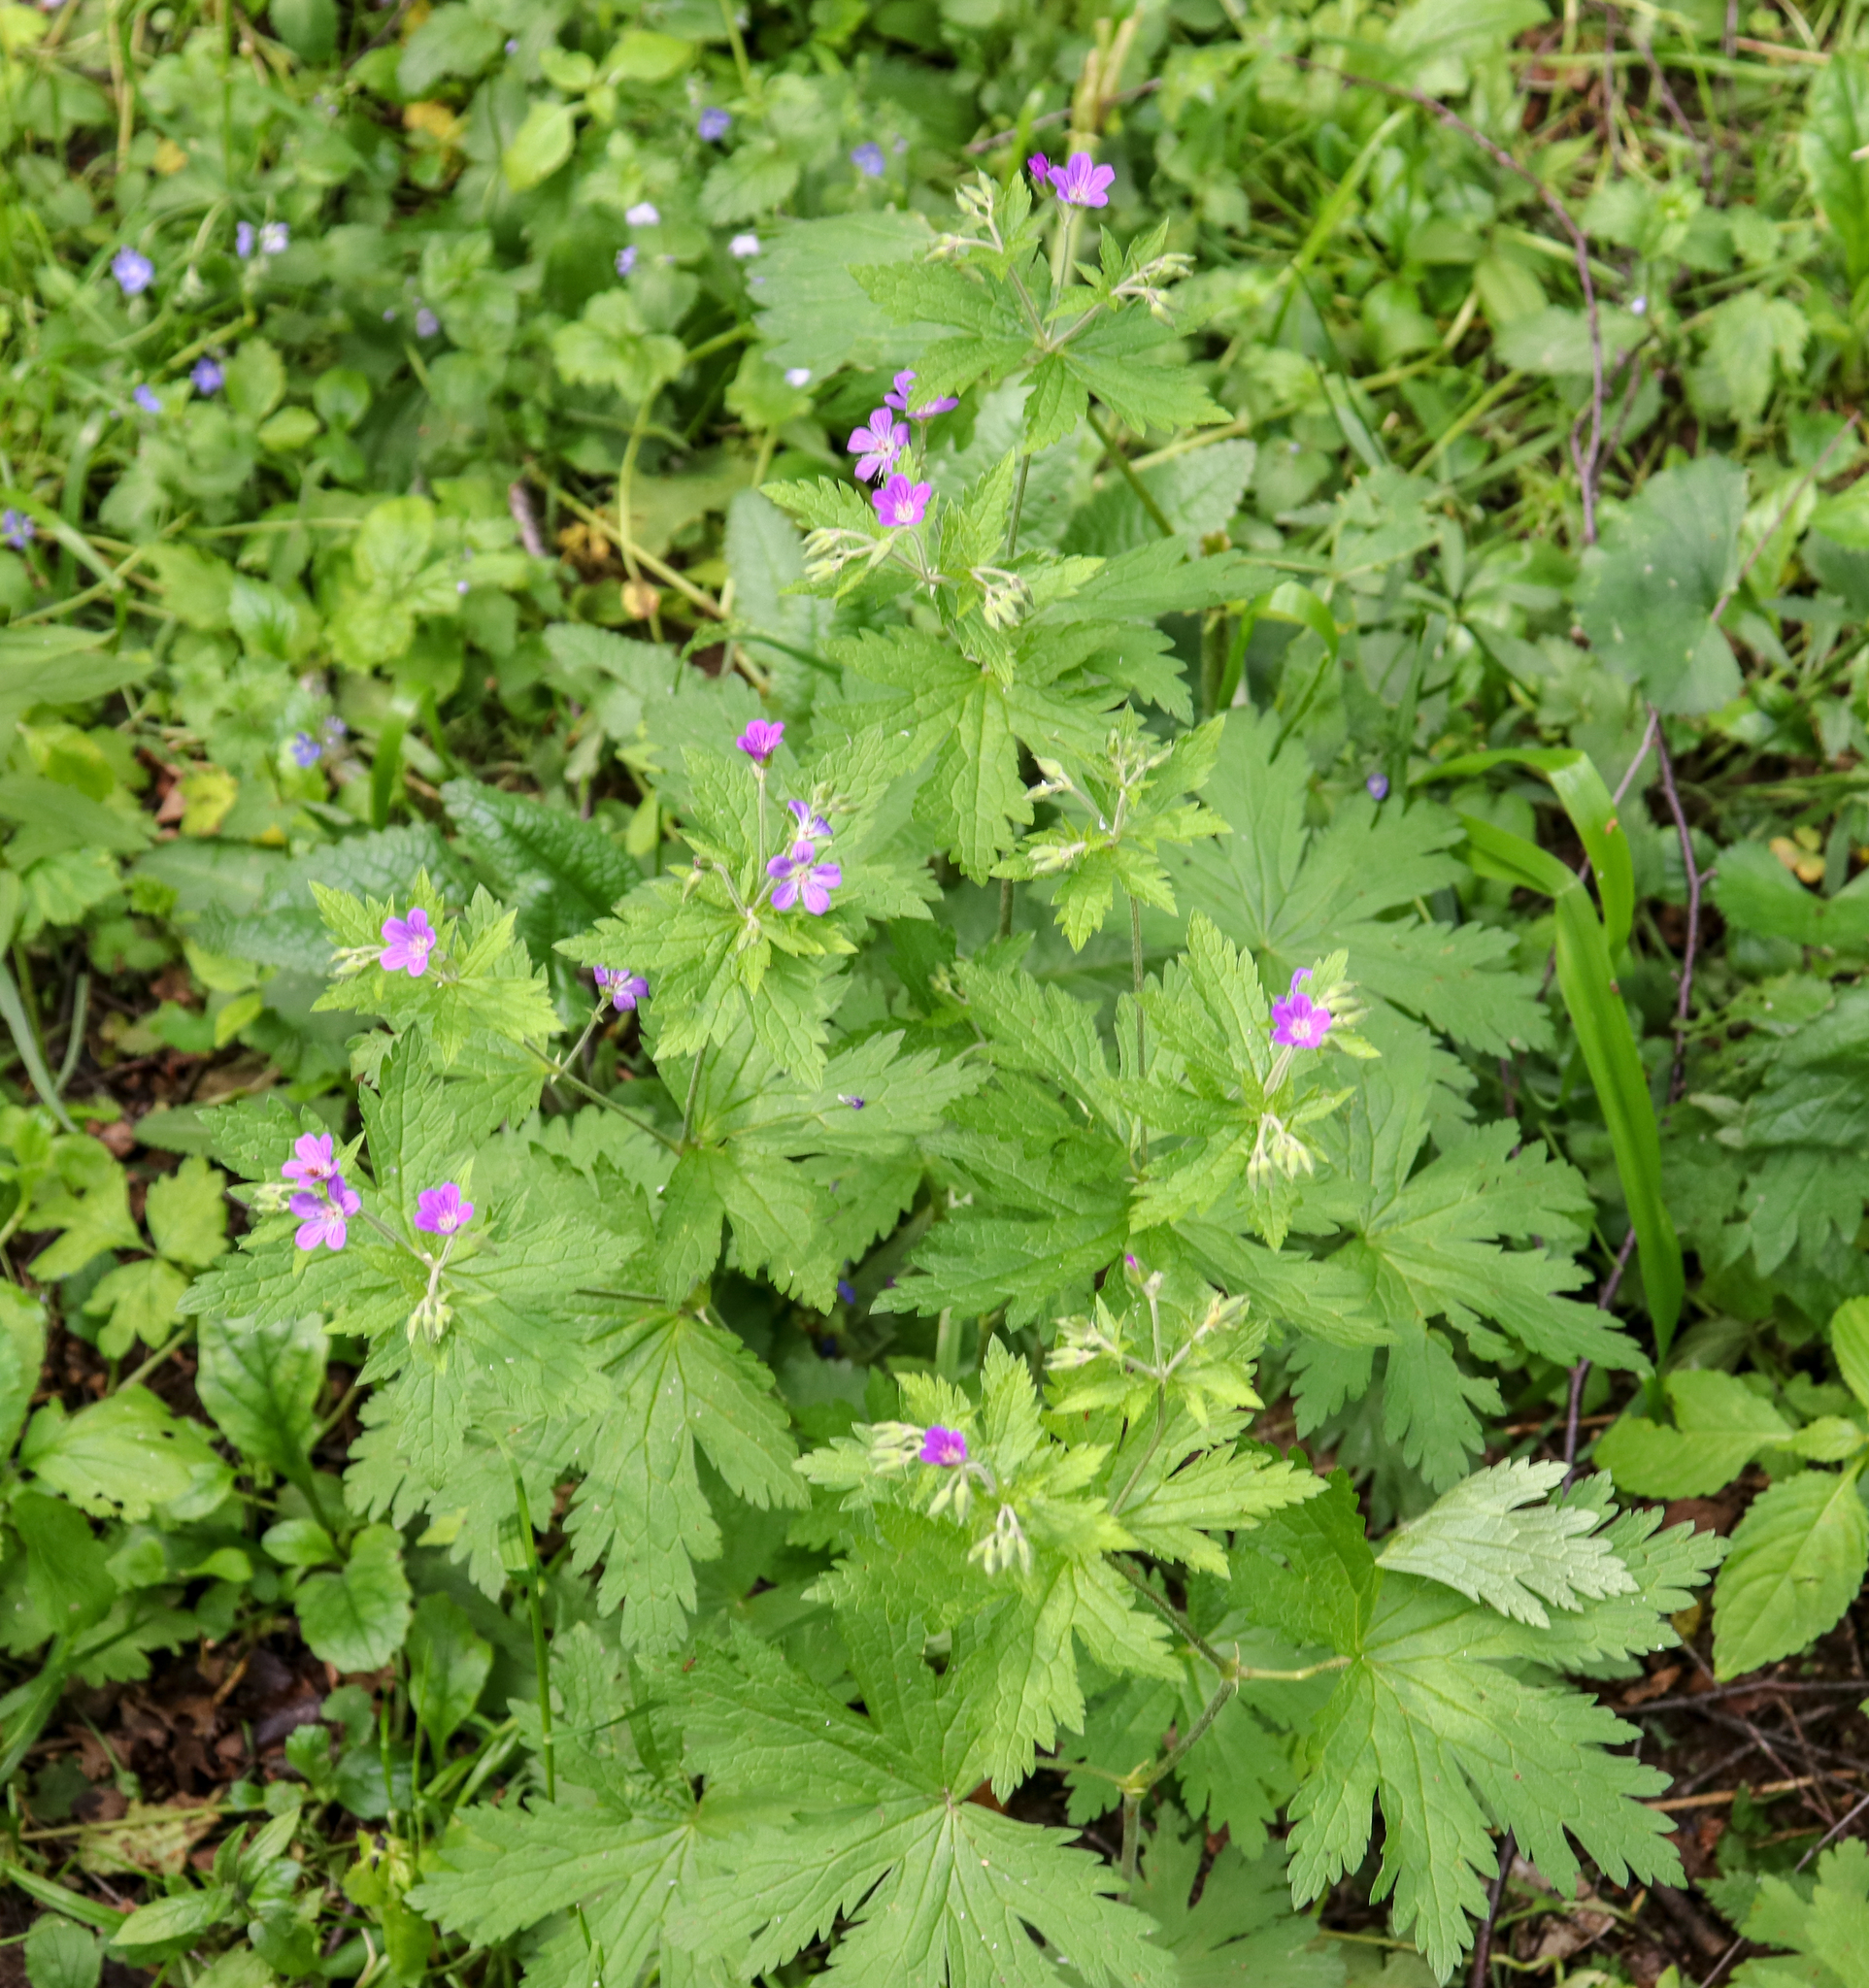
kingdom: Plantae
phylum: Tracheophyta
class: Magnoliopsida
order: Geraniales
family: Geraniaceae
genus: Geranium
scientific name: Geranium sylvaticum
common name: Wood crane's-bill
